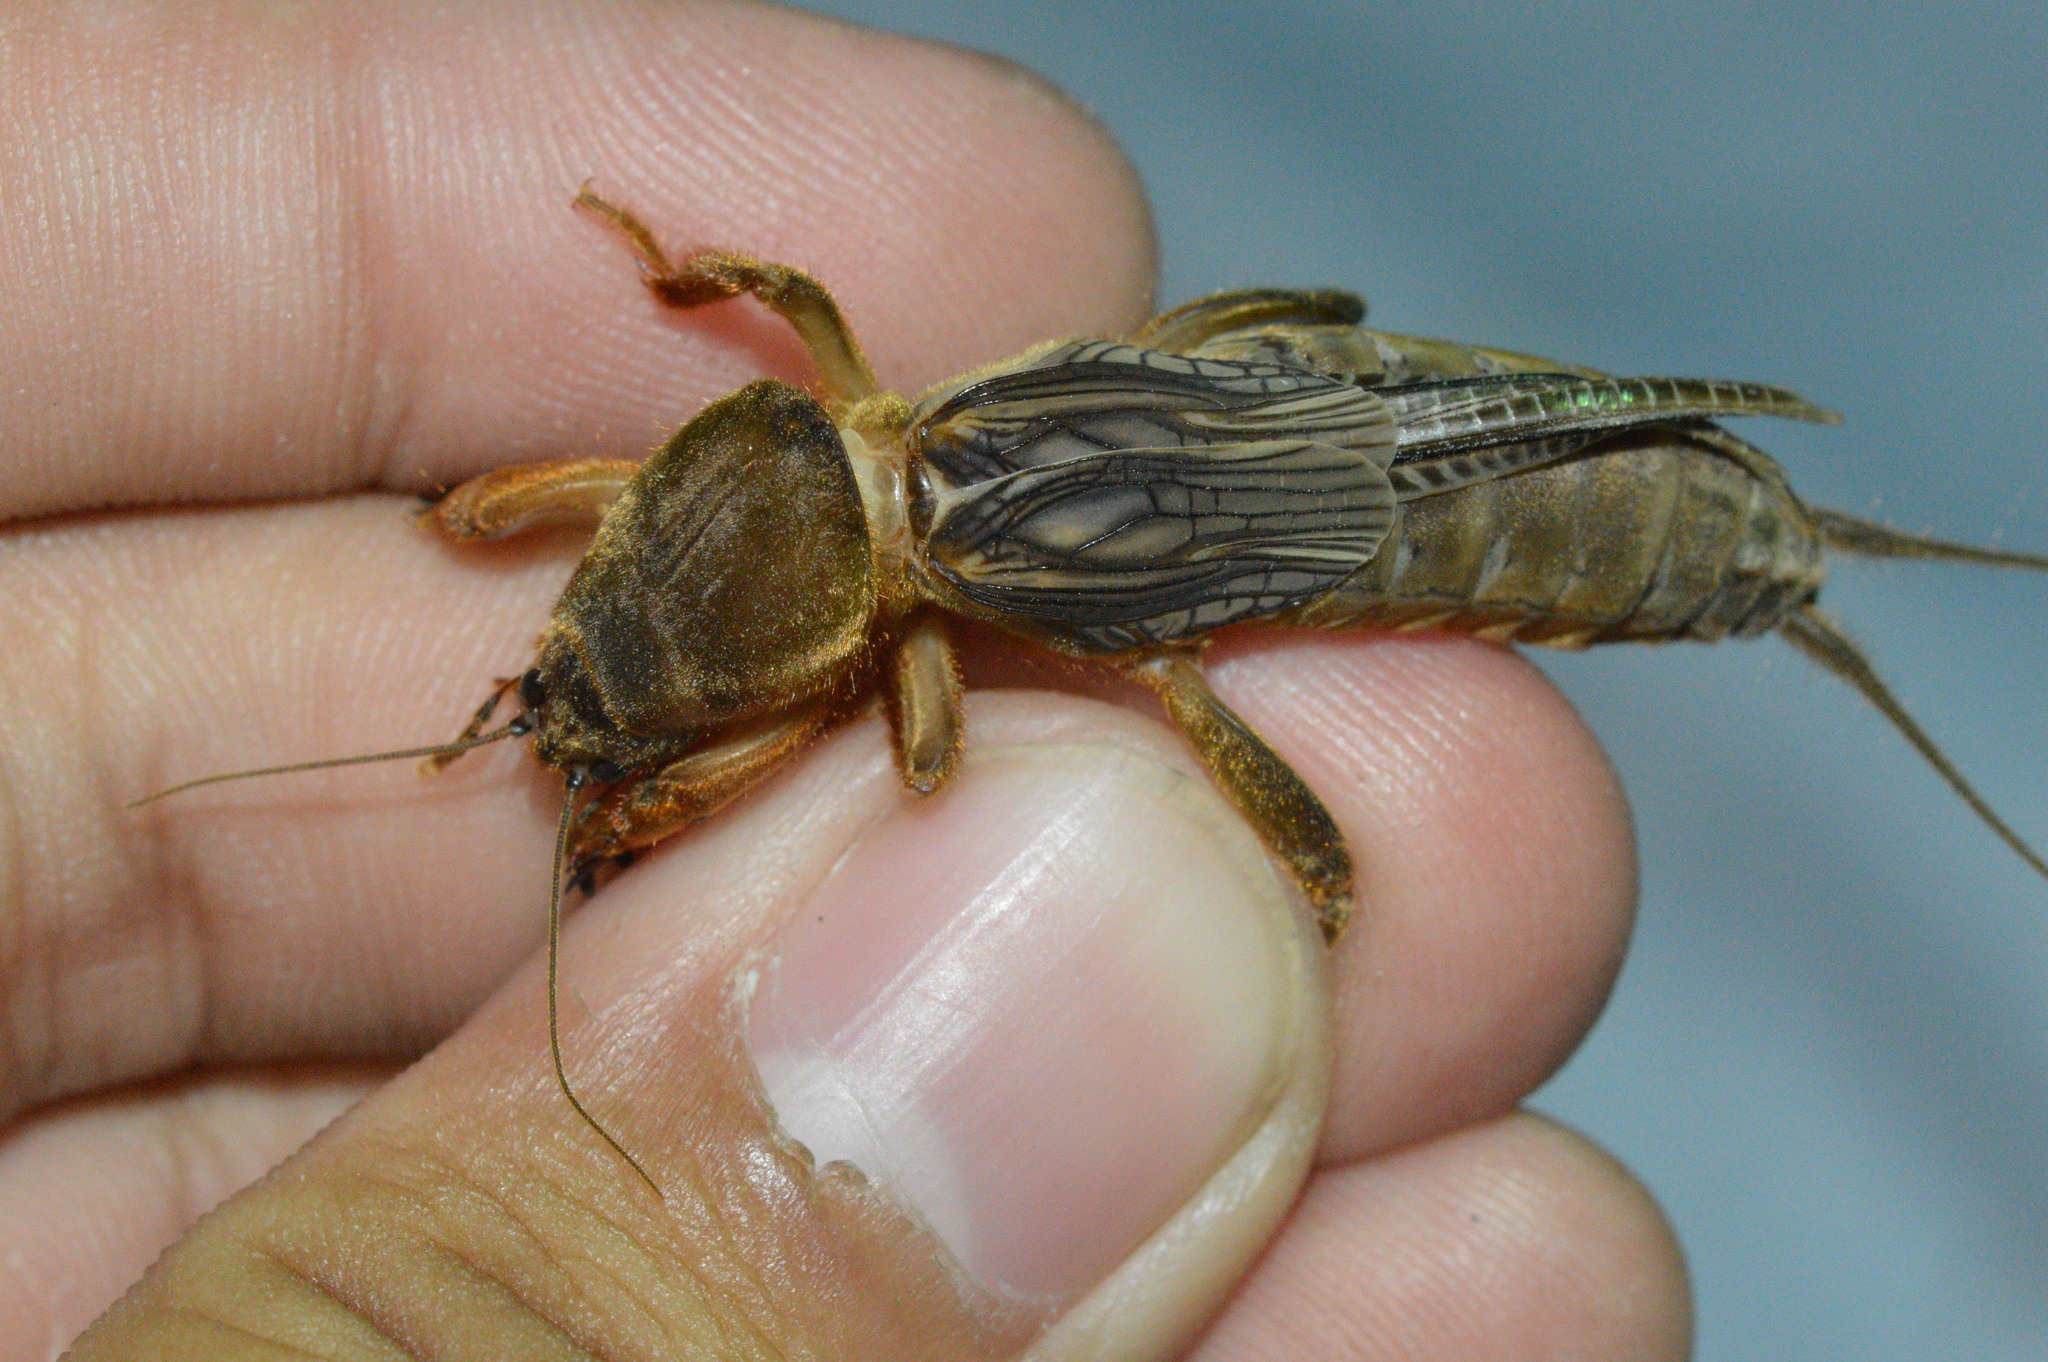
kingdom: Animalia
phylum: Arthropoda
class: Insecta
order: Orthoptera
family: Gryllotalpidae
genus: Neocurtilla
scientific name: Neocurtilla hexadactyla
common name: Northern mole cricket
